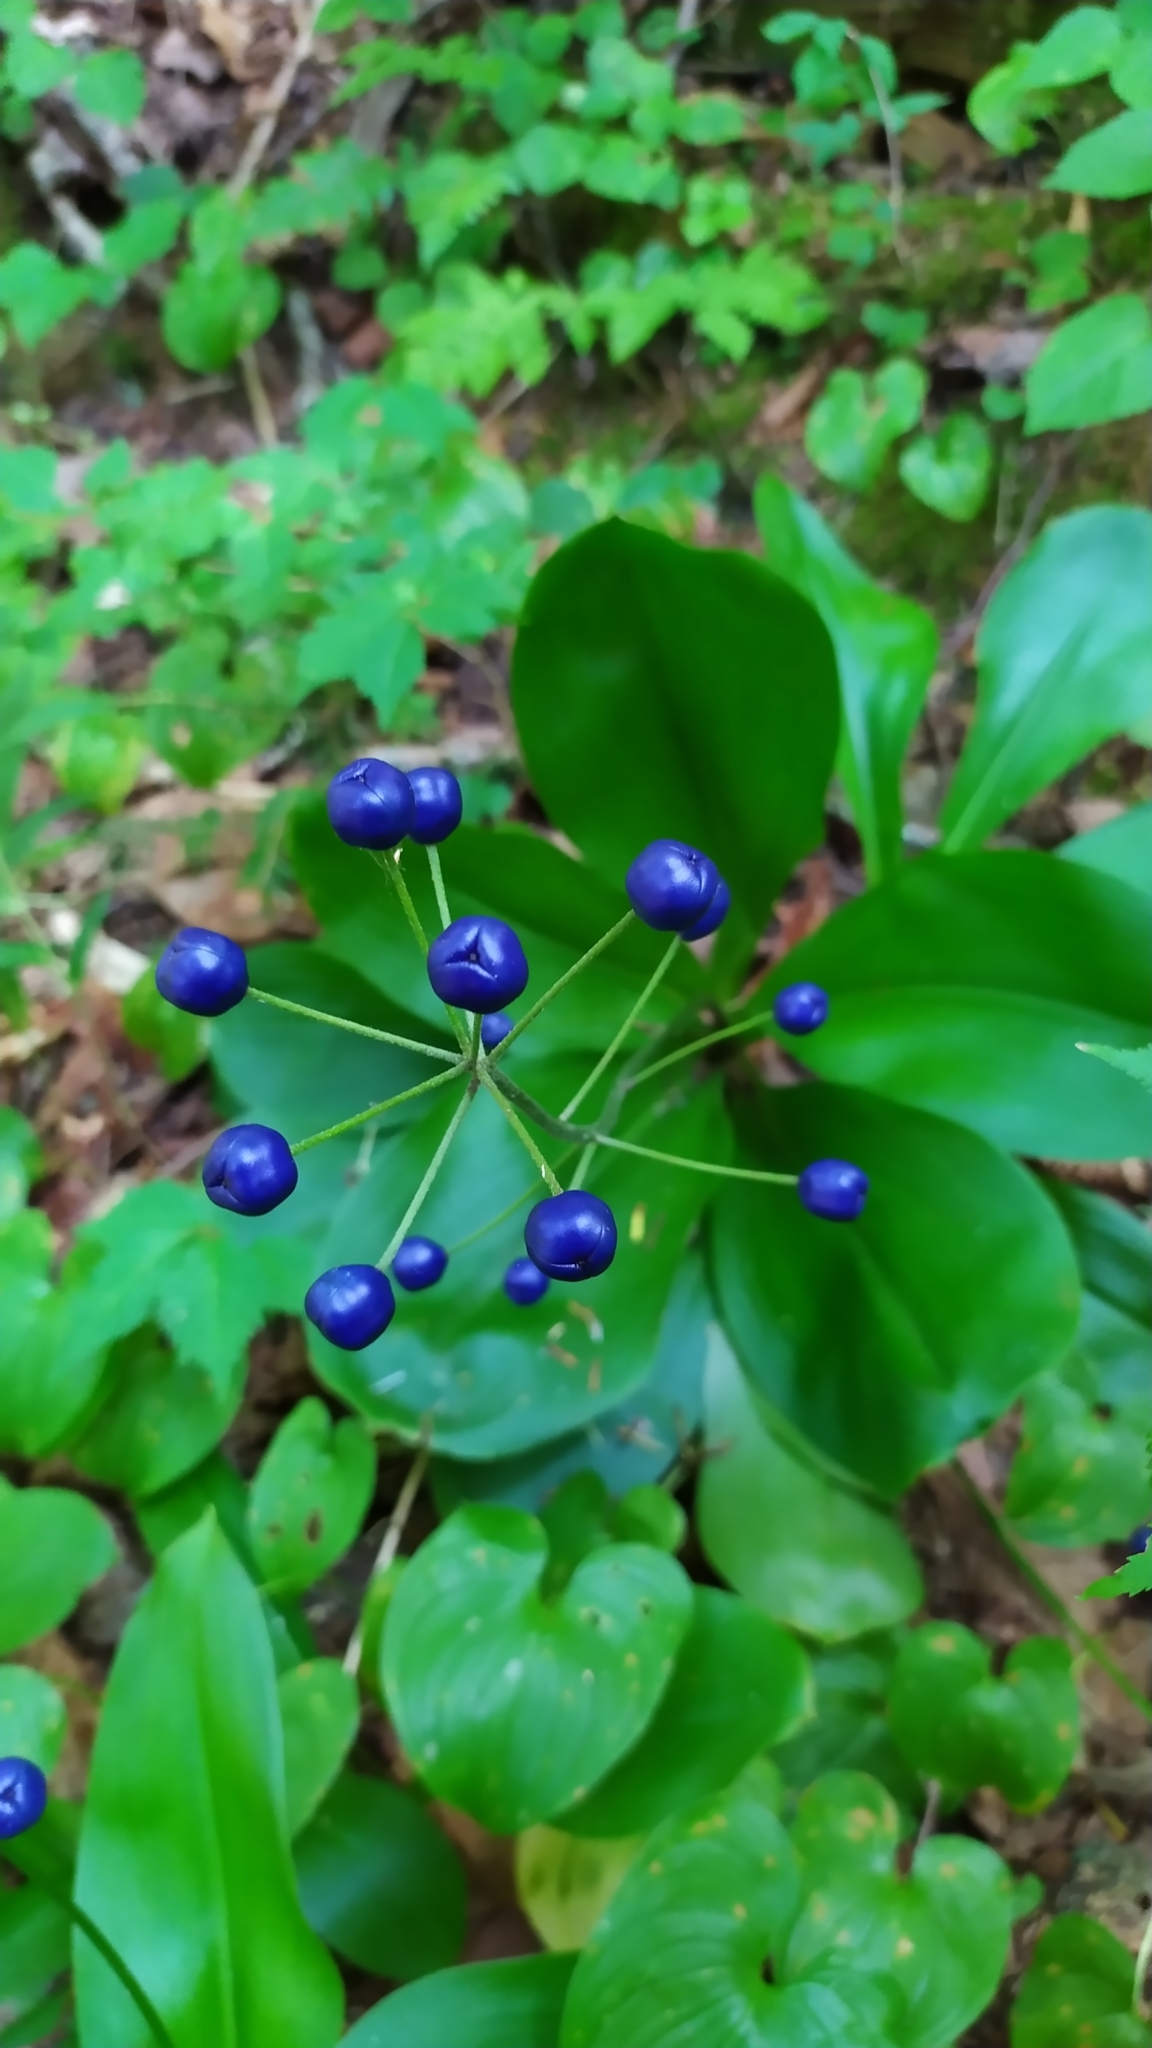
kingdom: Plantae
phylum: Tracheophyta
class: Liliopsida
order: Liliales
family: Liliaceae
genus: Clintonia
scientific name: Clintonia udensis
